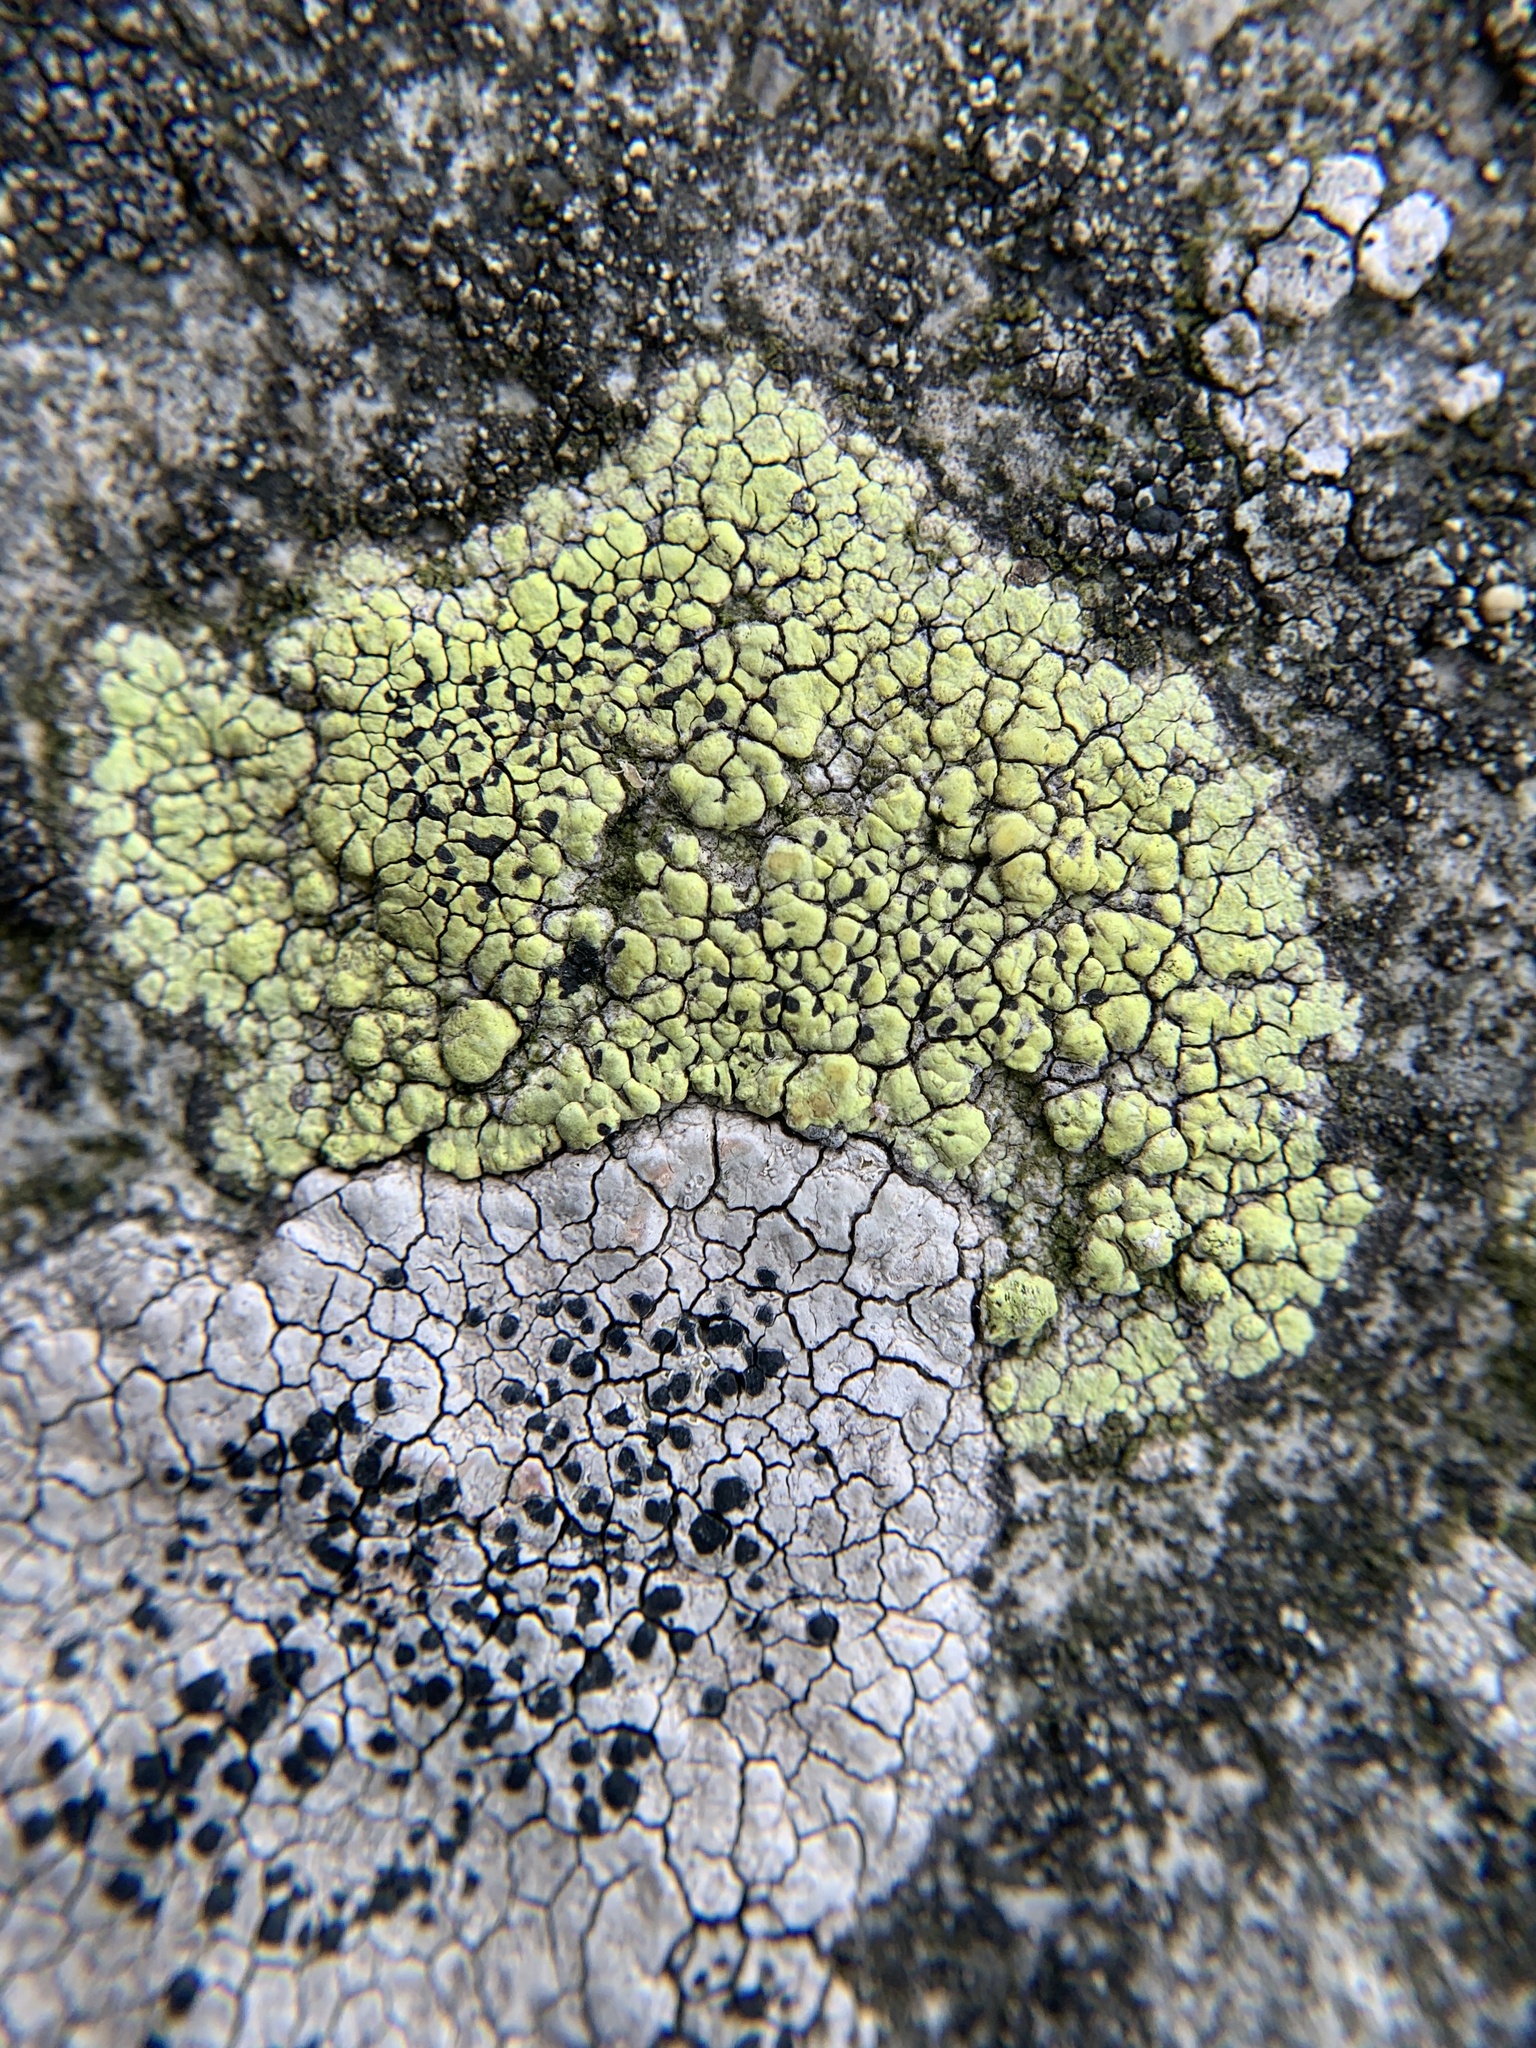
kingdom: Fungi
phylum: Ascomycota
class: Lecanoromycetes
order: Rhizocarpales
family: Rhizocarpaceae
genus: Rhizocarpon
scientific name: Rhizocarpon geographicum
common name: Yellow map lichen
